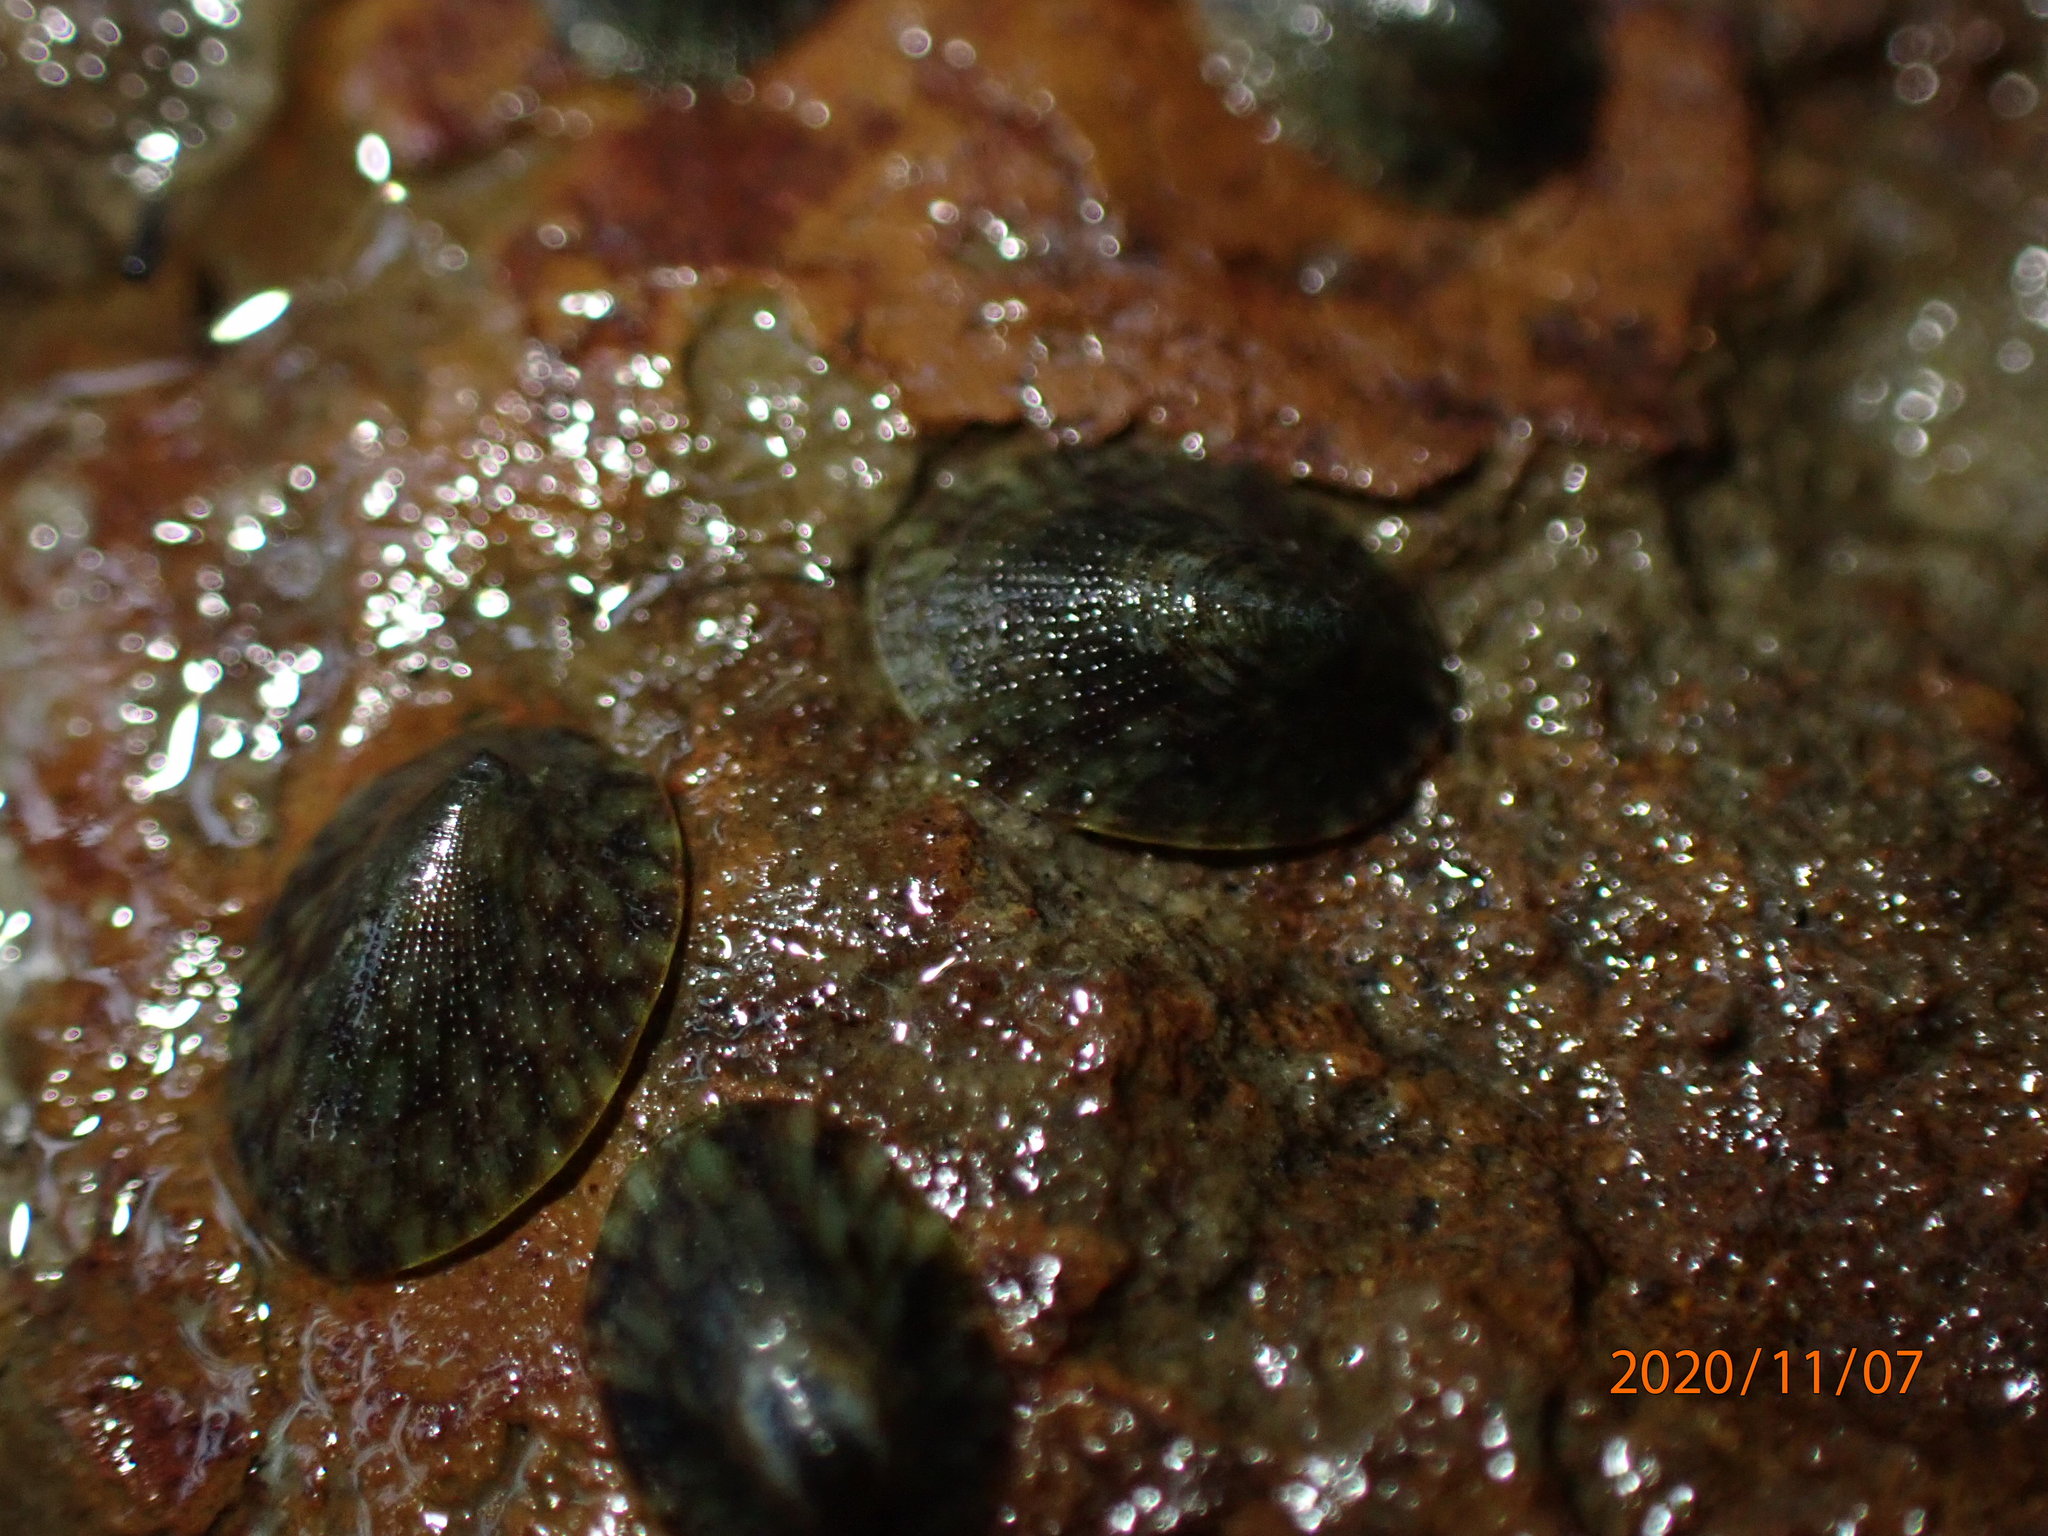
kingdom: Animalia
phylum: Mollusca
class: Gastropoda
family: Lottiidae
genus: Notoacmea
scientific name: Notoacmea elongata
